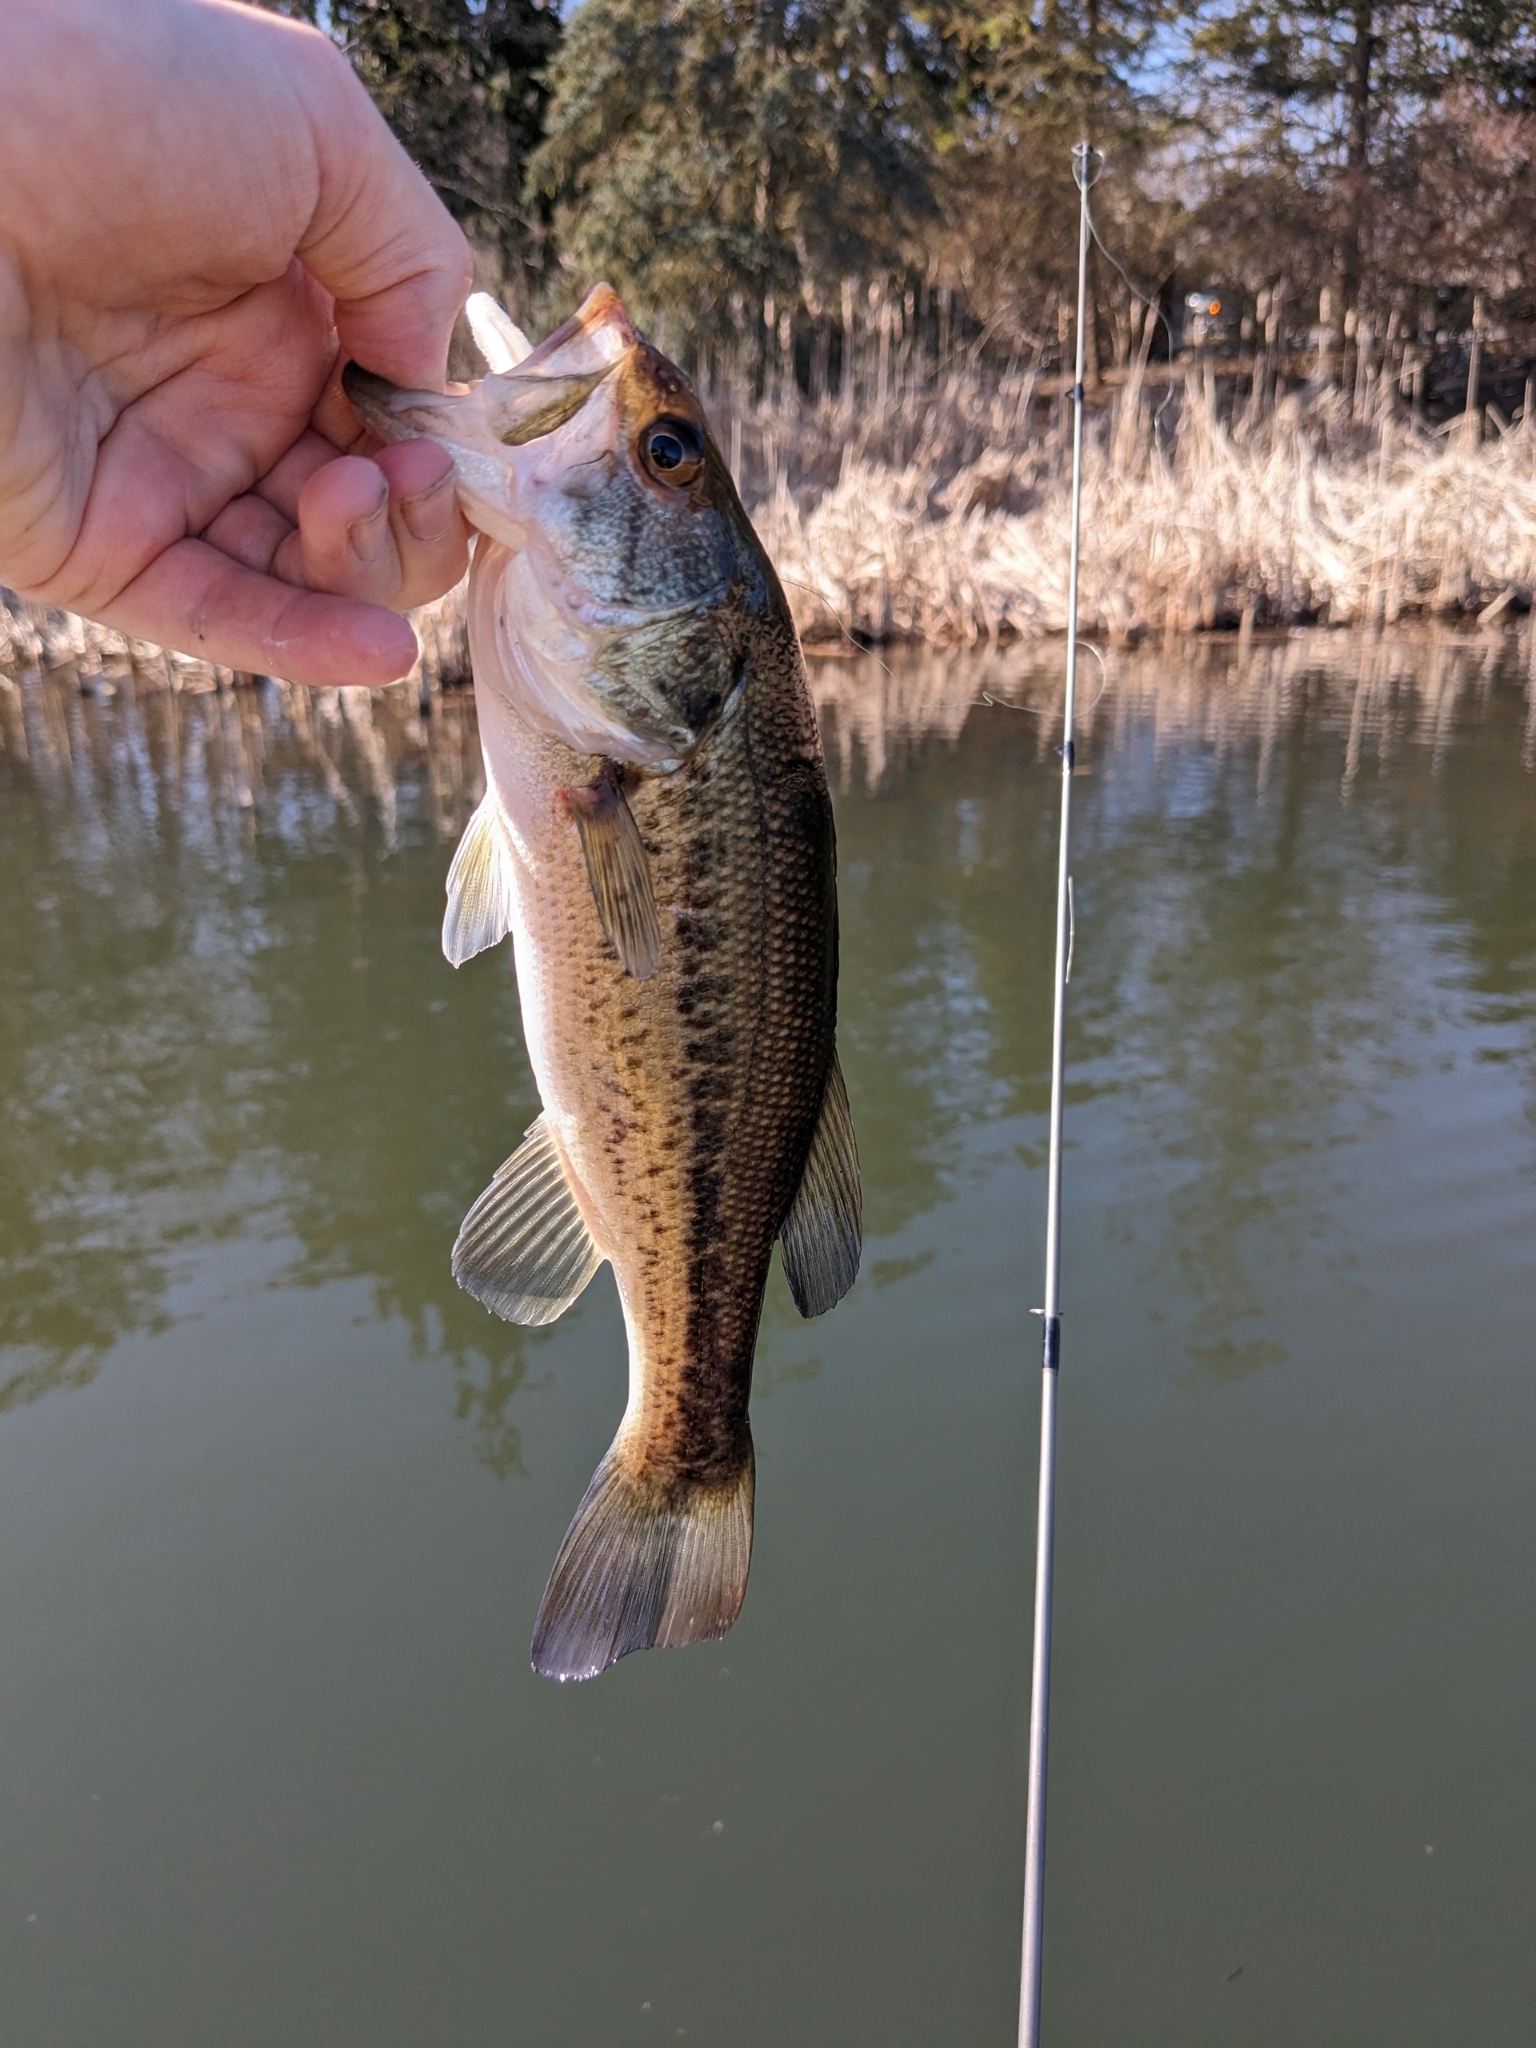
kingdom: Animalia
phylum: Chordata
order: Perciformes
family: Centrarchidae
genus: Micropterus
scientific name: Micropterus
